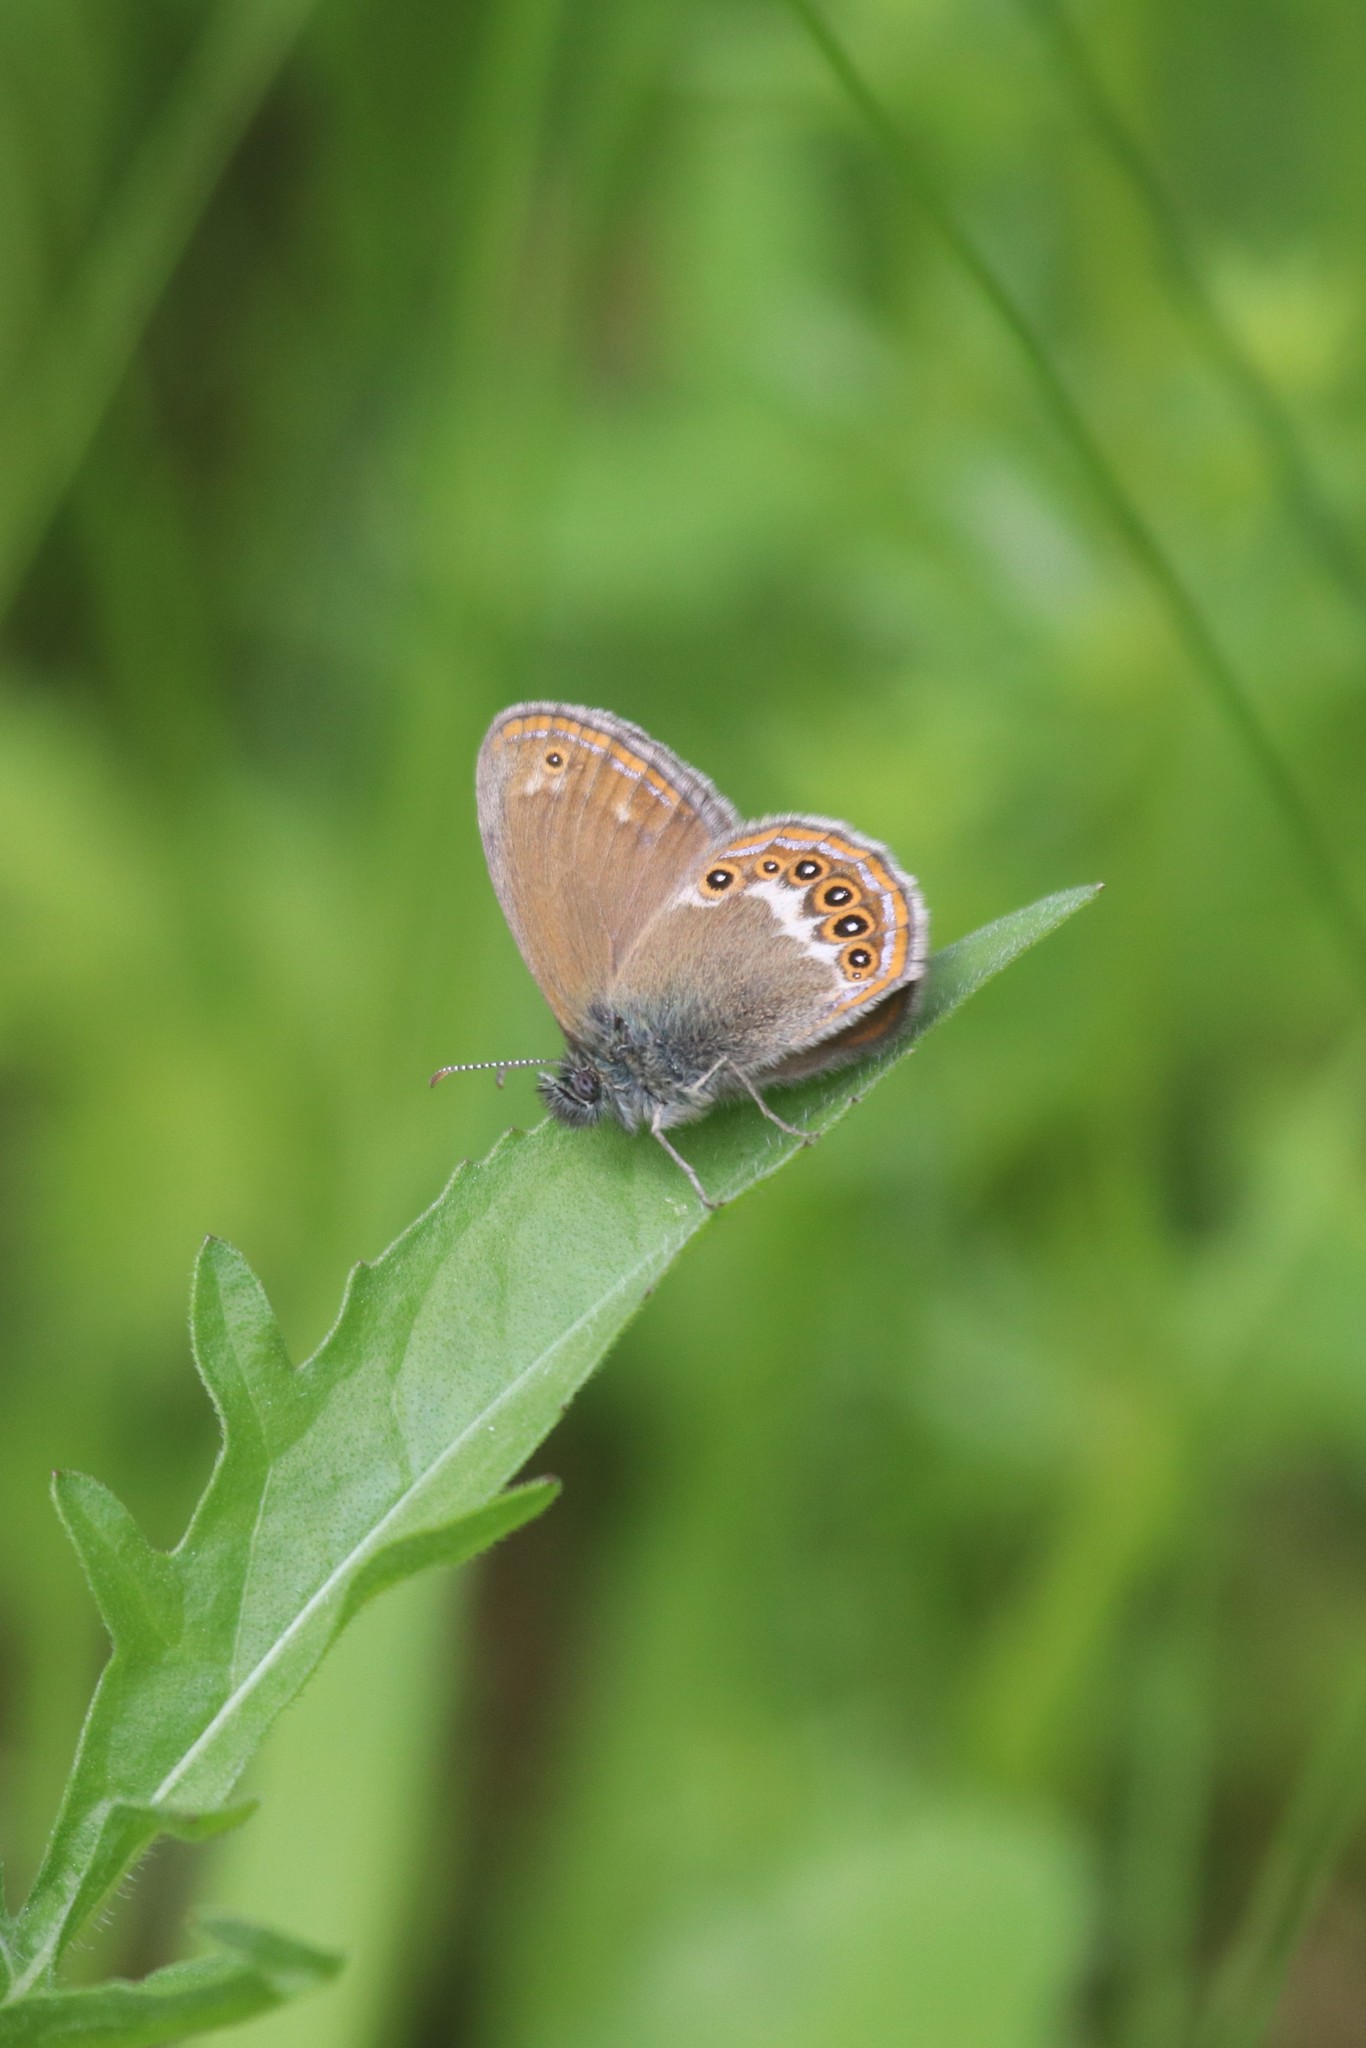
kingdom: Animalia
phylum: Arthropoda
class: Insecta
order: Lepidoptera
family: Nymphalidae
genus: Coenonympha
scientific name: Coenonympha hero
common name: Scarce heath
